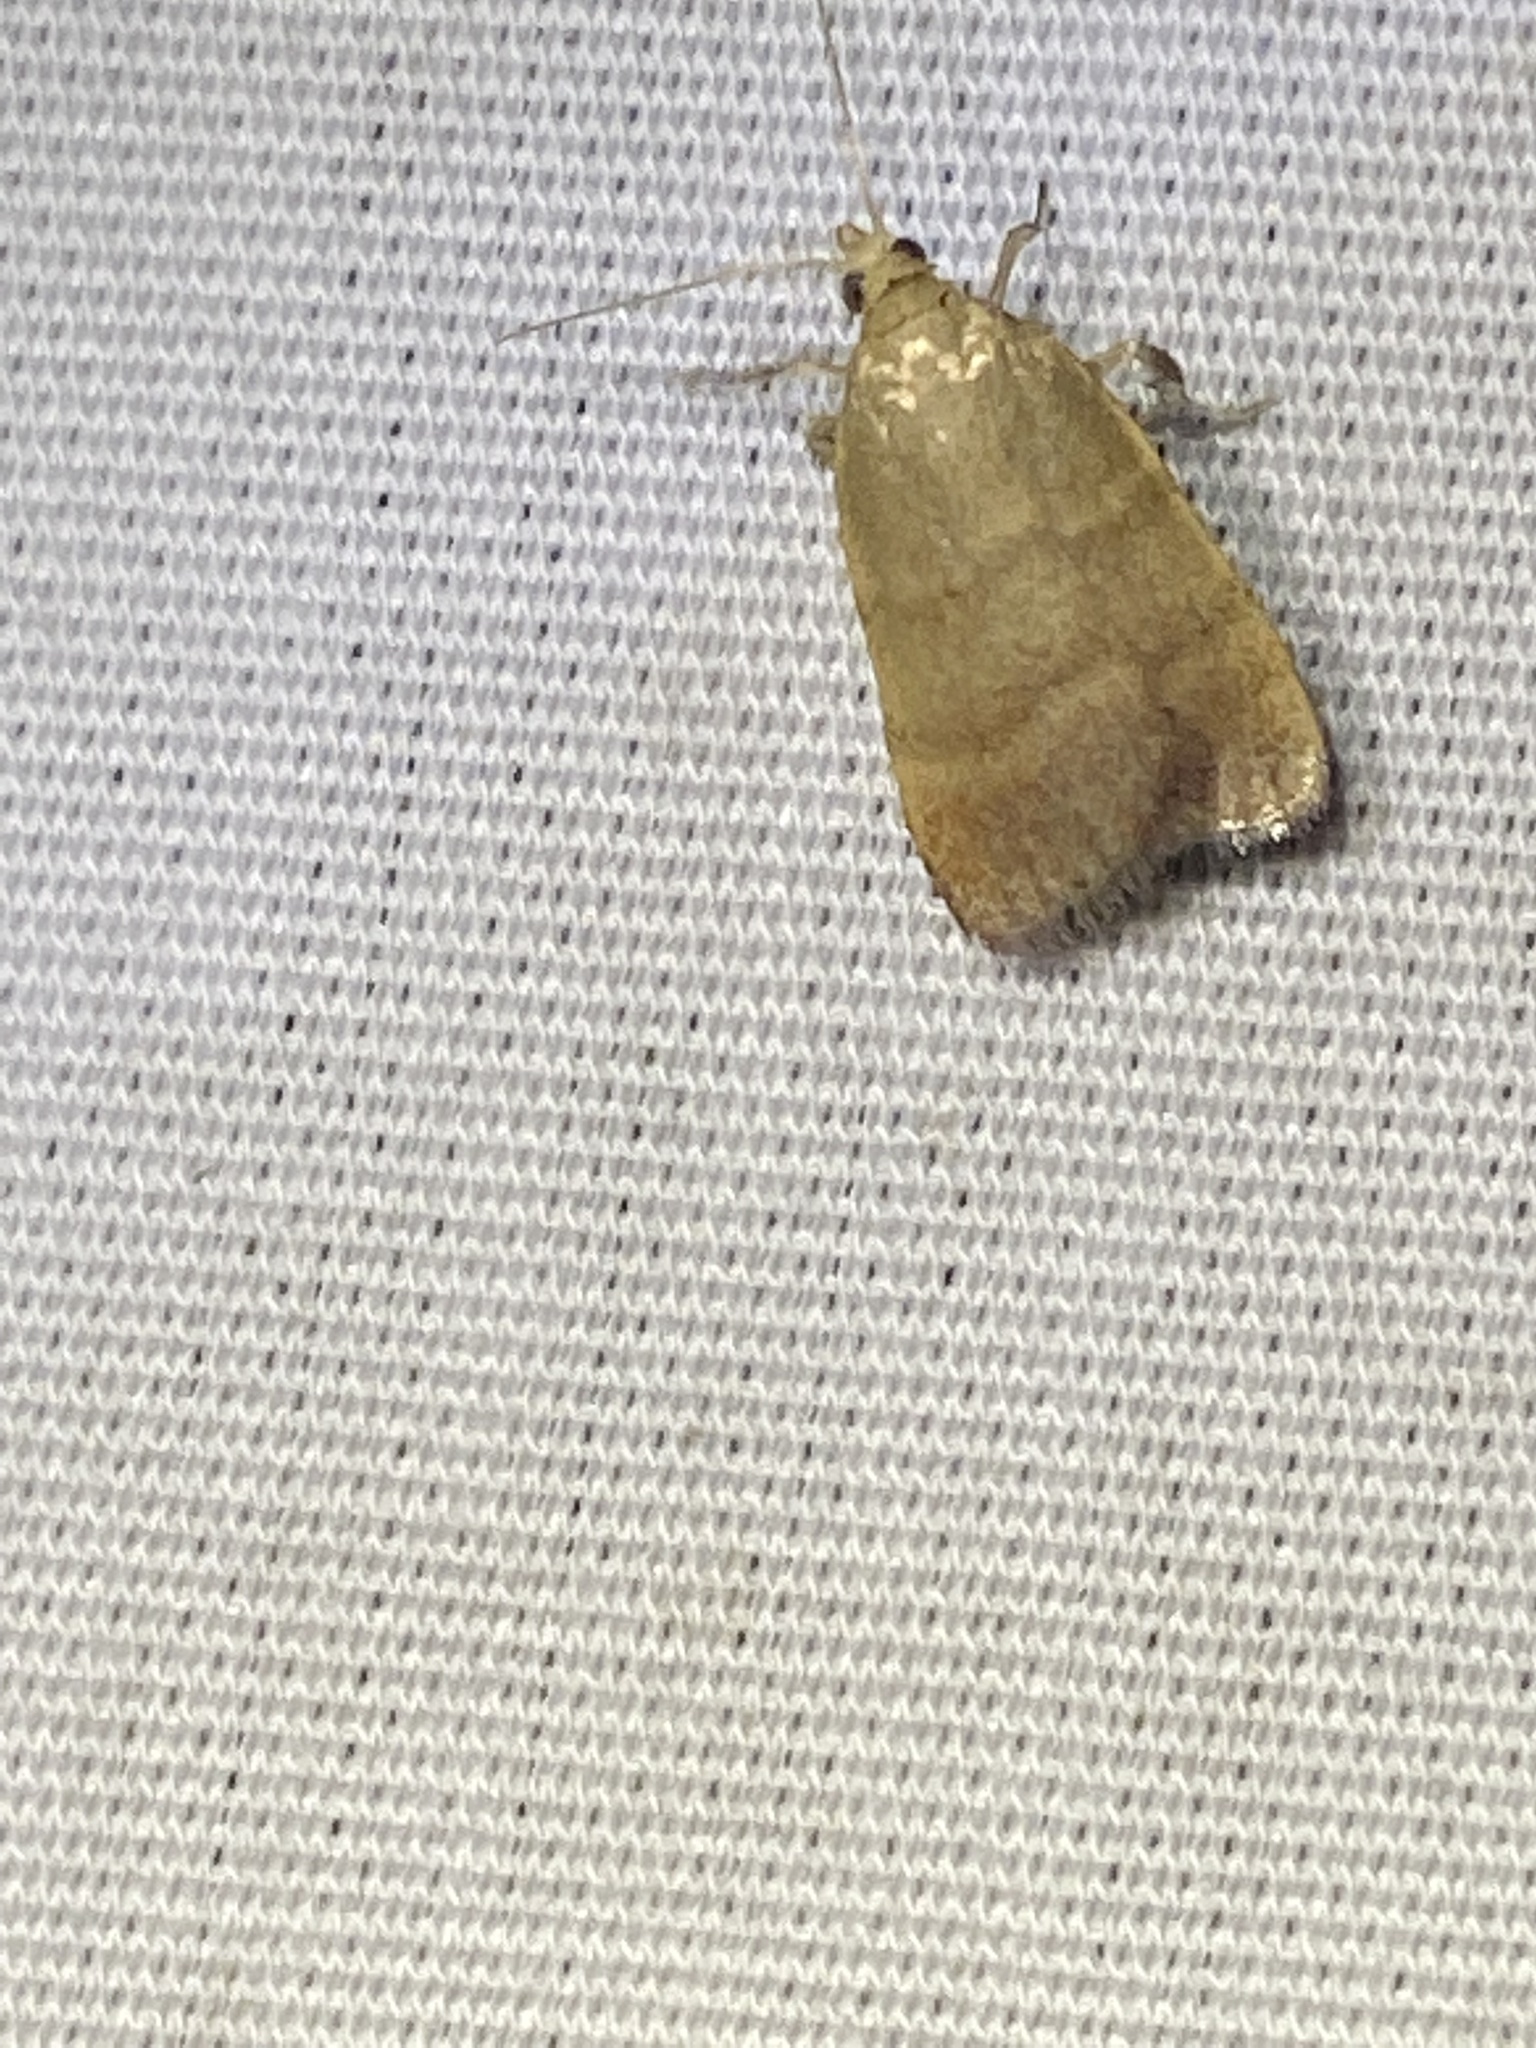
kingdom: Animalia
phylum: Arthropoda
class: Insecta
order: Lepidoptera
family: Pyralidae
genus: Condylolomia
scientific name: Condylolomia participialis
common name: Drab condylolomia moth
